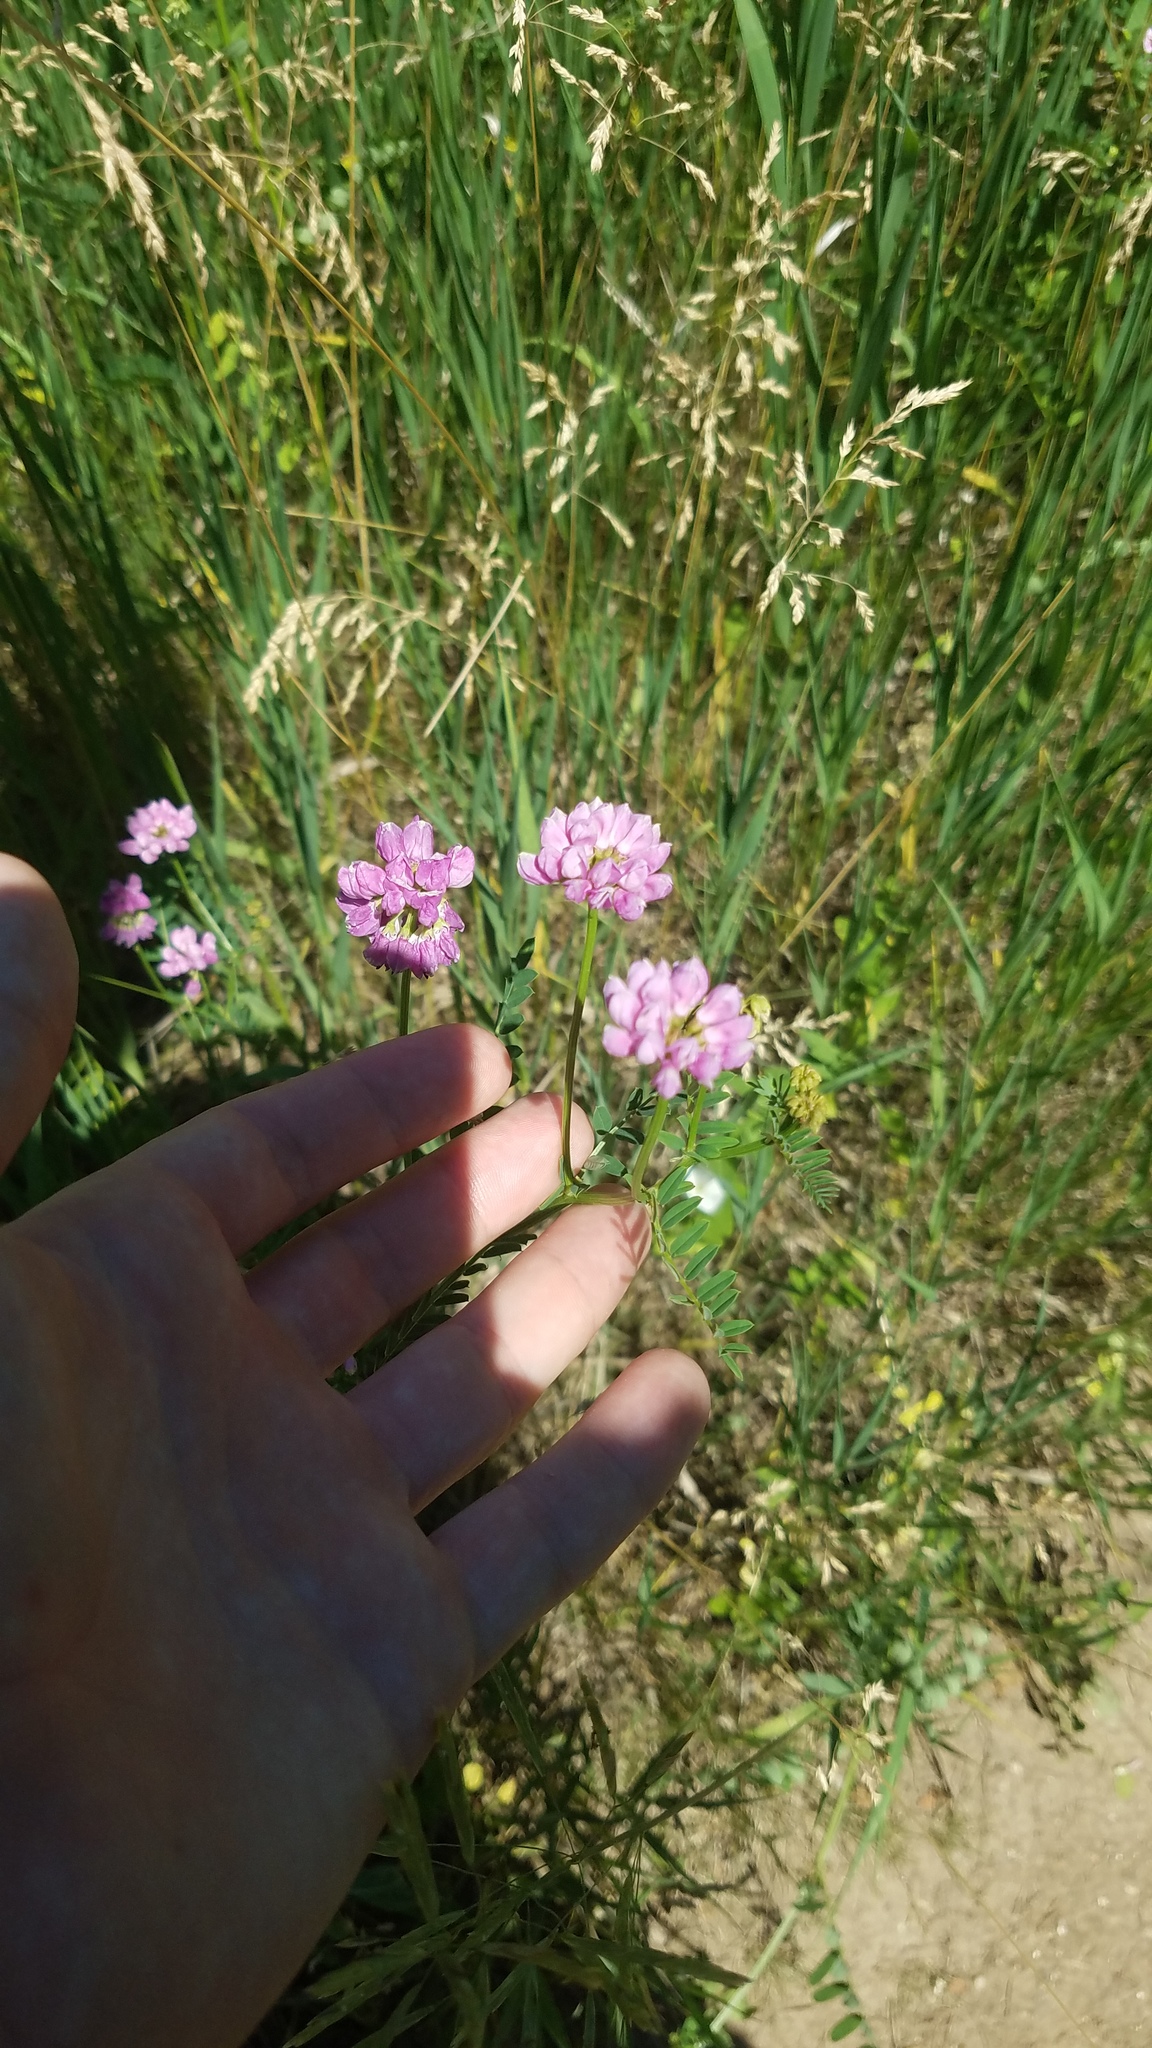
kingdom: Plantae
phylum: Tracheophyta
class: Magnoliopsida
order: Fabales
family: Fabaceae
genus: Coronilla
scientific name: Coronilla varia
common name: Crownvetch
